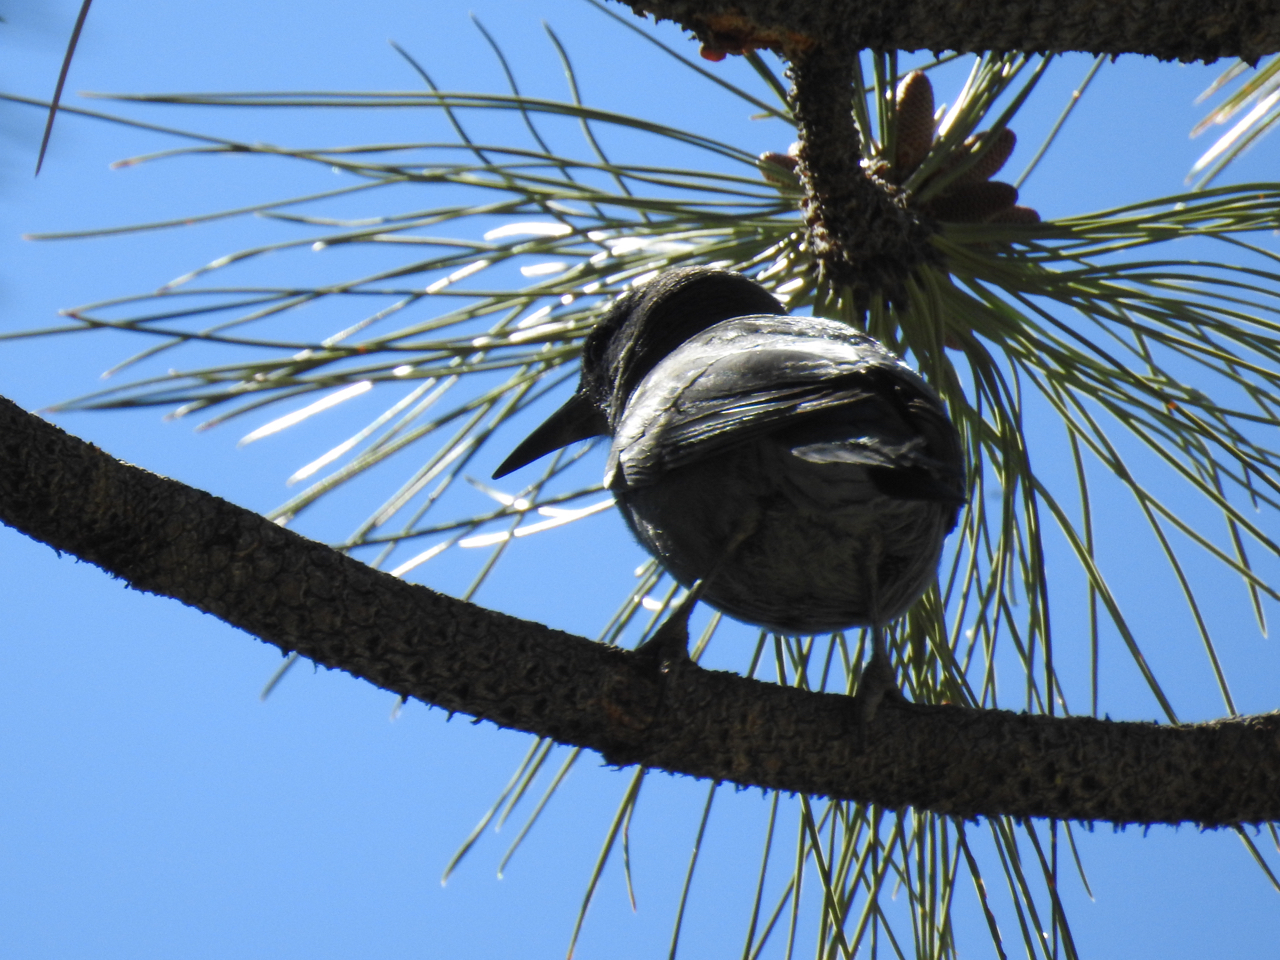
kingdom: Animalia
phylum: Chordata
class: Aves
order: Passeriformes
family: Corvidae
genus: Gymnorhinus
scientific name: Gymnorhinus cyanocephalus
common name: Pinyon jay
